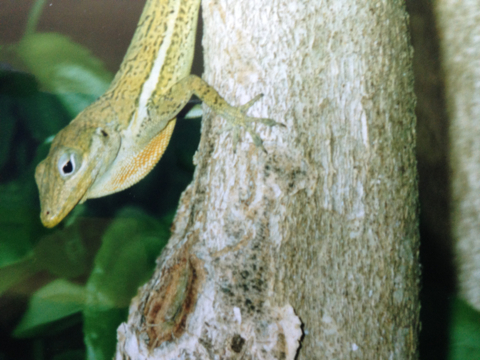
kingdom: Animalia
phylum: Chordata
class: Squamata
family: Dactyloidae
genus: Anolis
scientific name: Anolis gingivinus
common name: Anguilla anole
